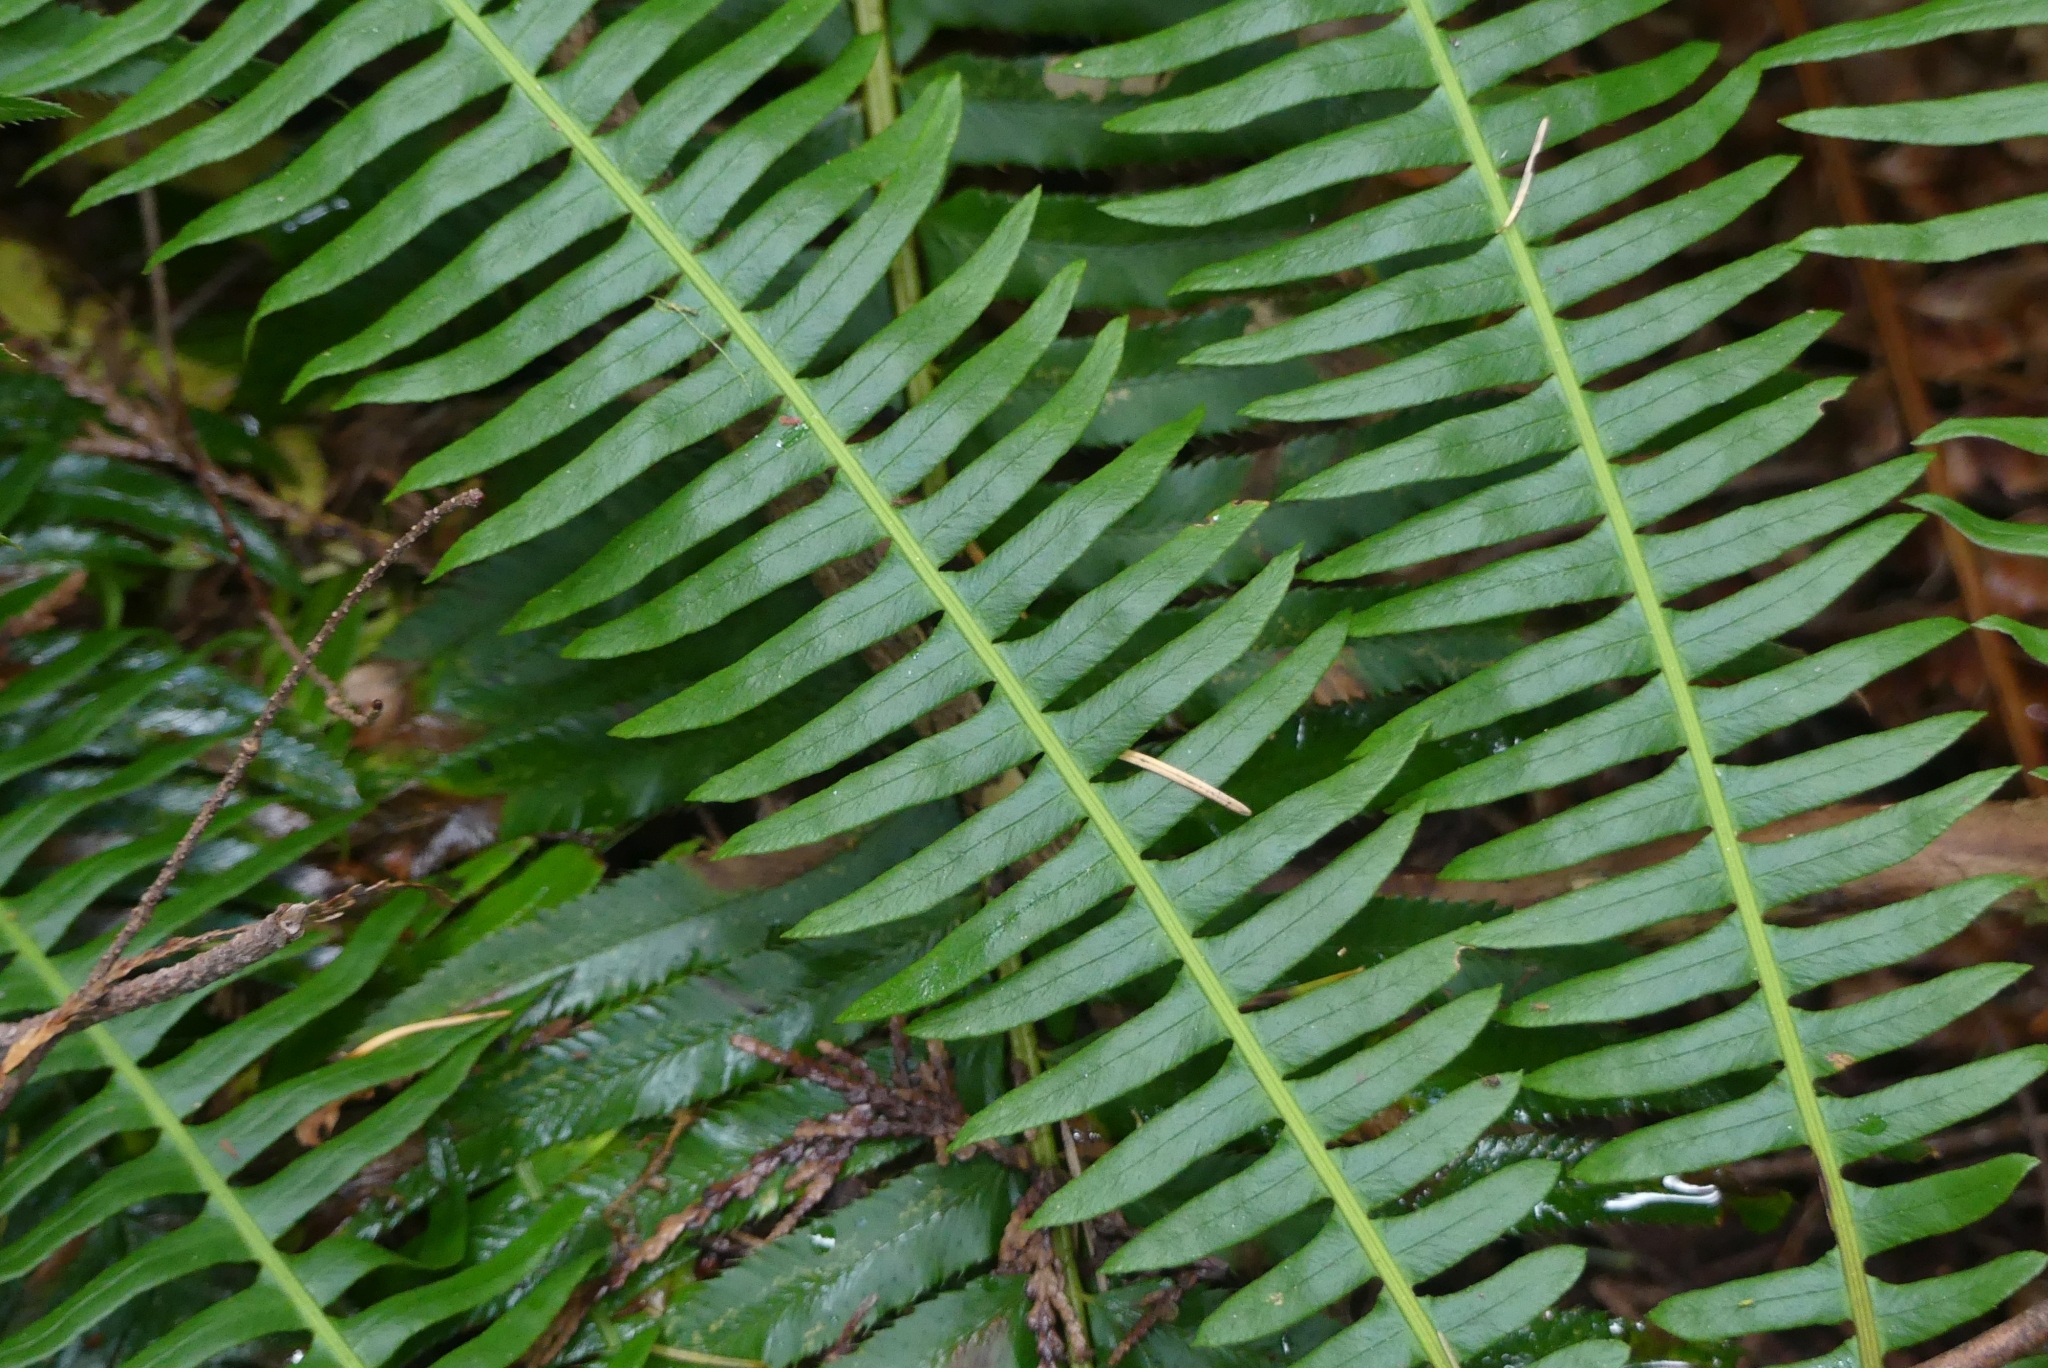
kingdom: Plantae
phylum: Tracheophyta
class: Polypodiopsida
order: Polypodiales
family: Blechnaceae
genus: Struthiopteris
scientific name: Struthiopteris spicant
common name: Deer fern
